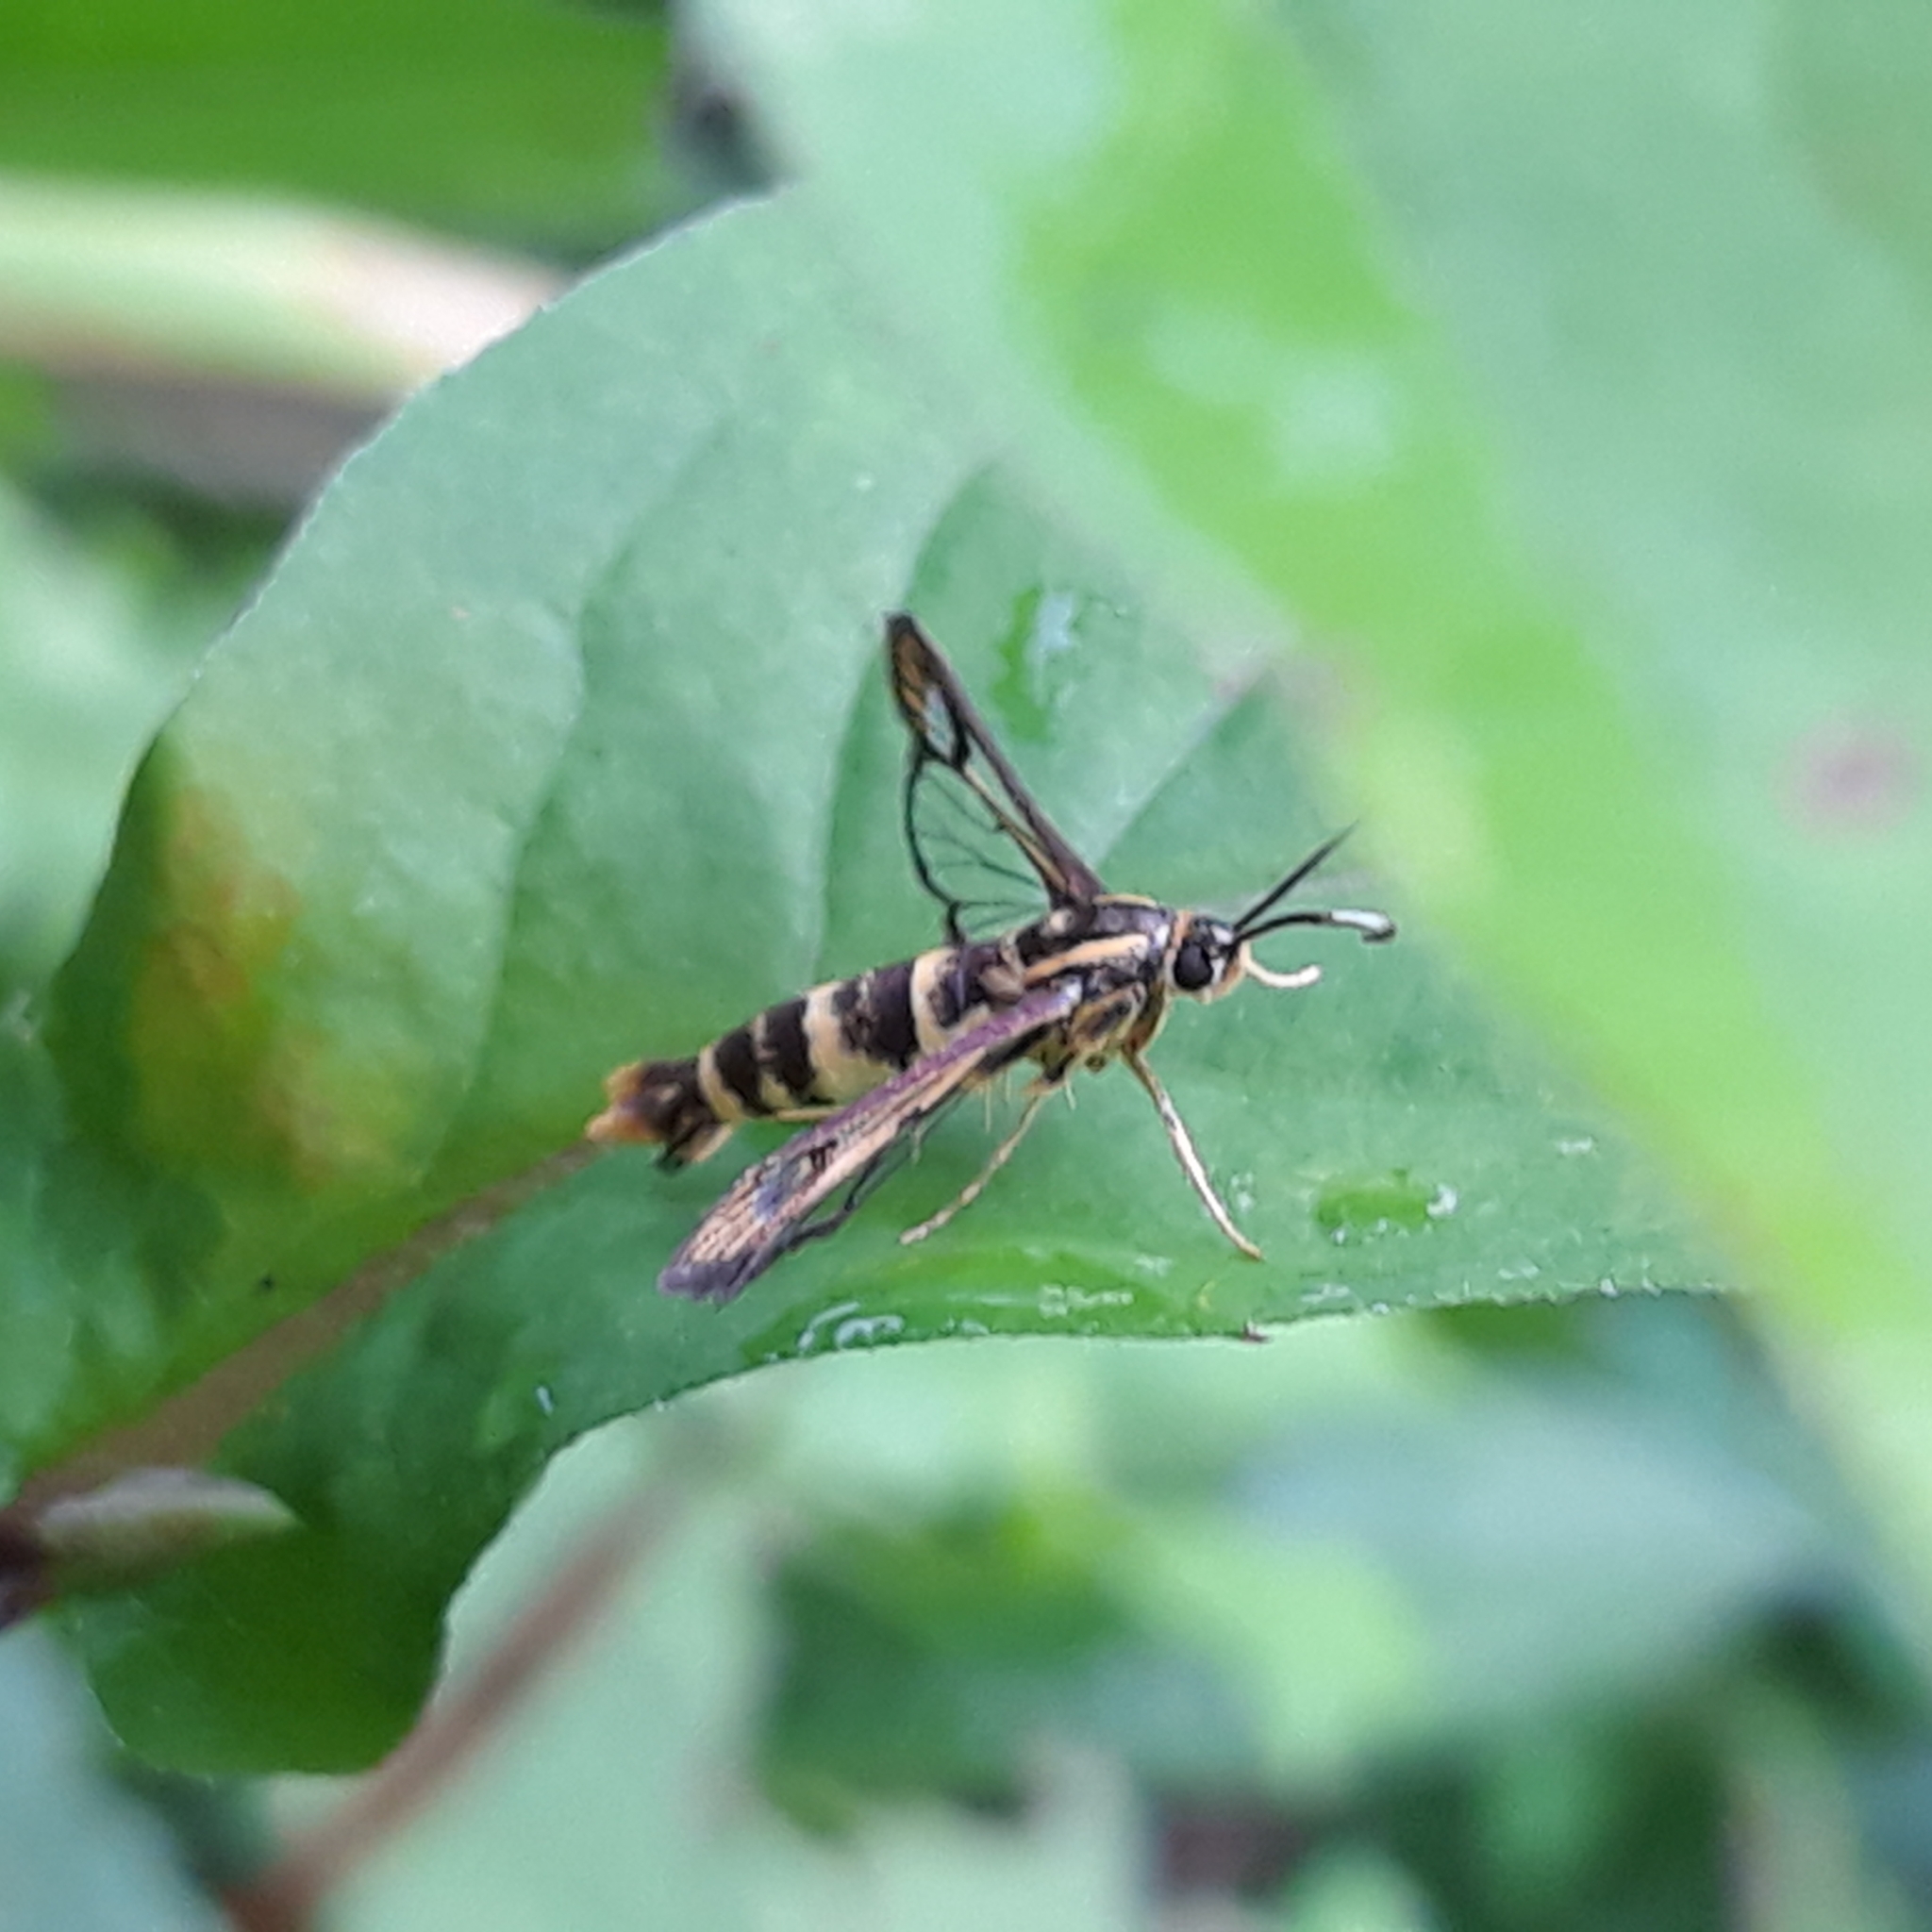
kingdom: Animalia
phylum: Arthropoda
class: Insecta
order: Lepidoptera
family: Sesiidae
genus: Carmenta
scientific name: Carmenta bassiformis
